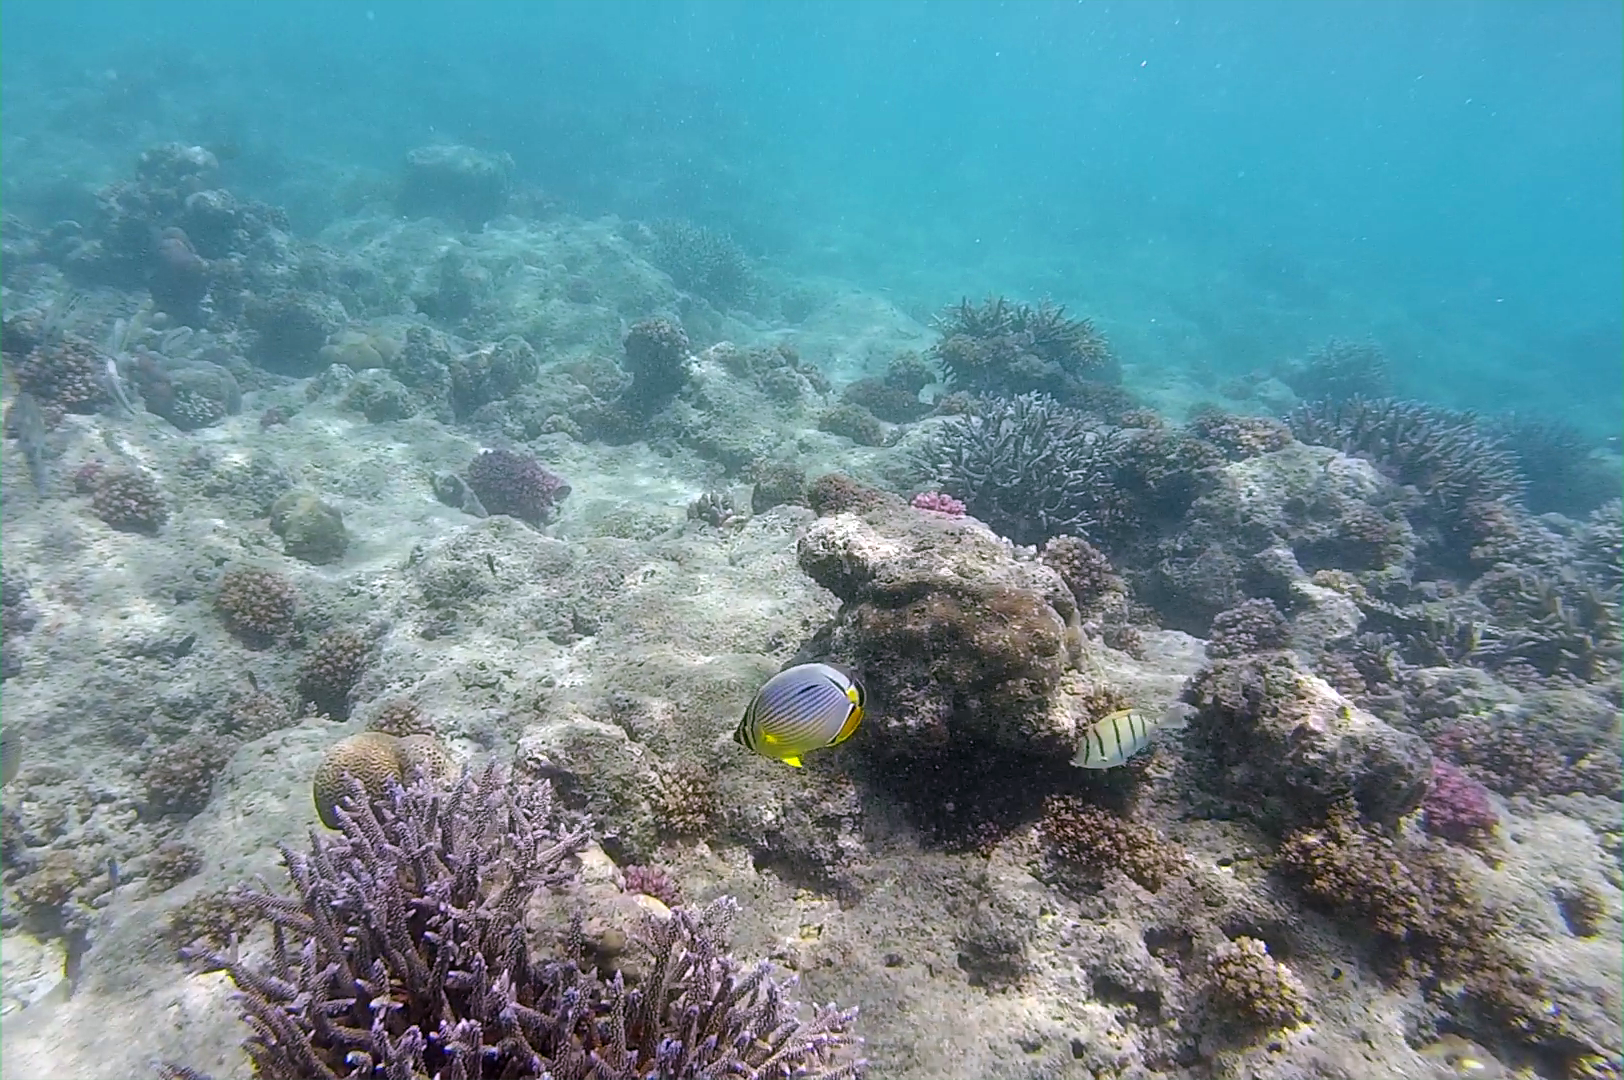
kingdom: Animalia
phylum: Chordata
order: Perciformes
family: Chaetodontidae
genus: Chaetodon
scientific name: Chaetodon trifasciatus
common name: Redfin butterflyfish
